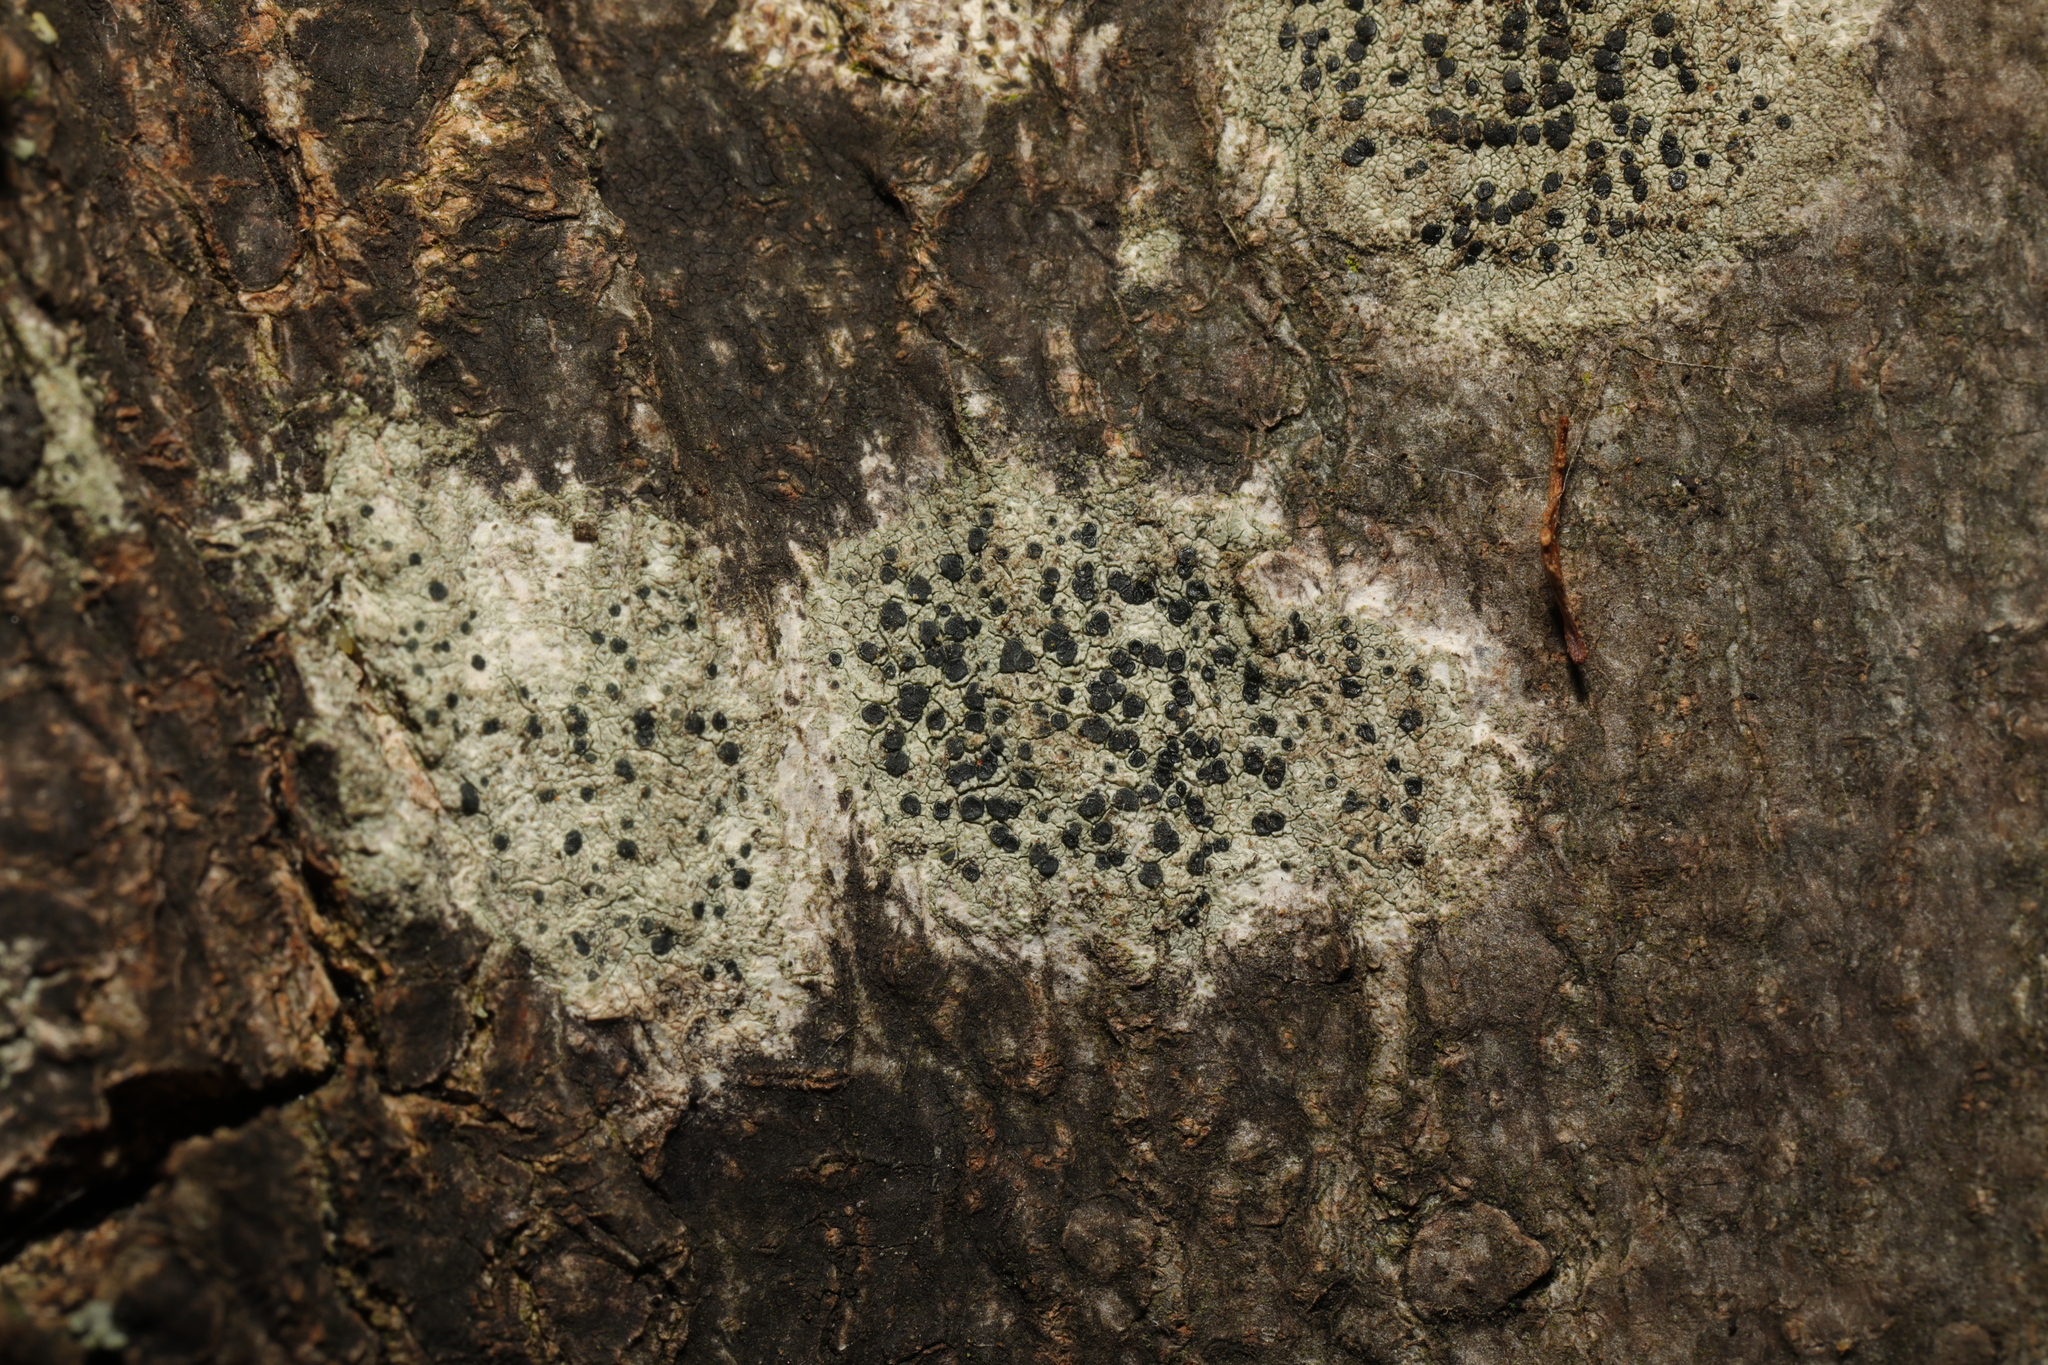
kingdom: Fungi
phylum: Ascomycota
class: Lecanoromycetes
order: Lecanorales
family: Lecanoraceae
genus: Lecidella
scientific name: Lecidella elaeochroma
